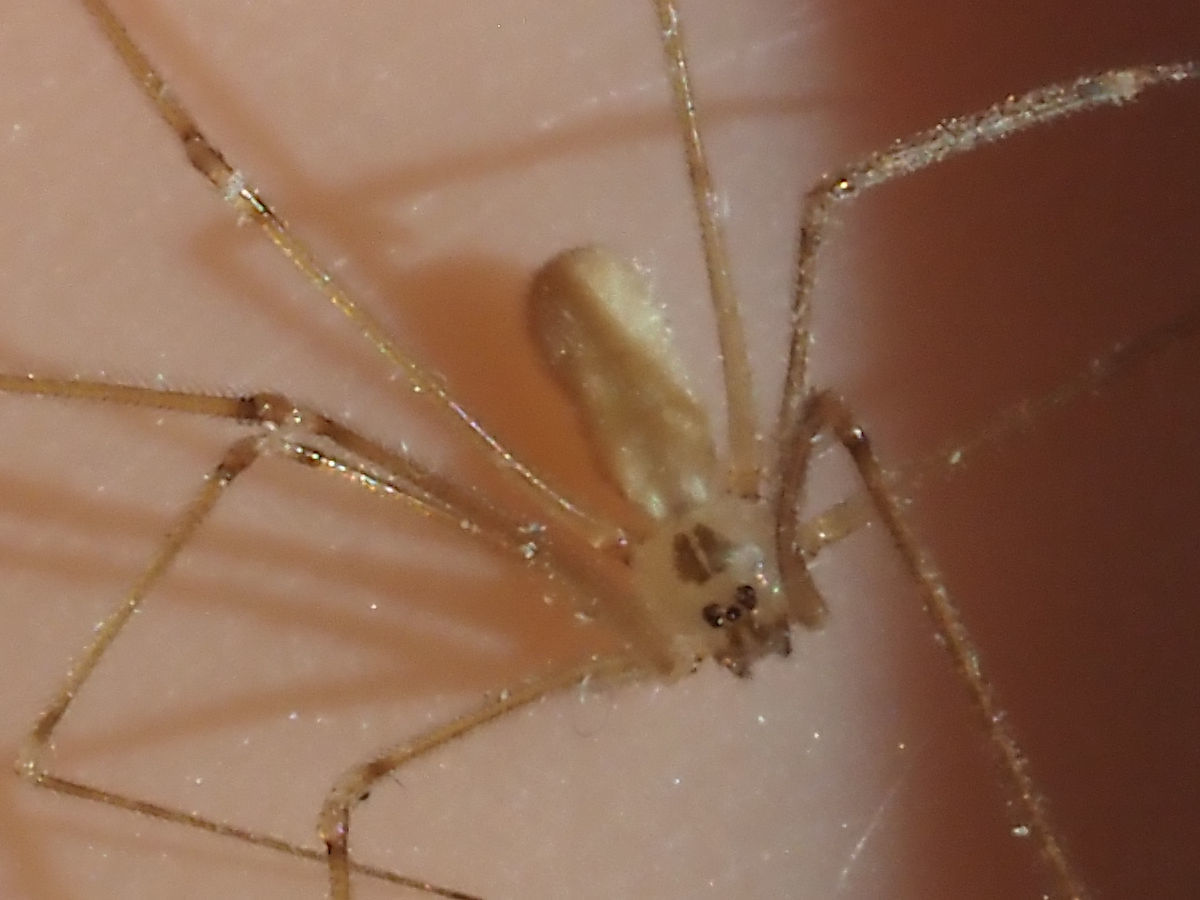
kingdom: Animalia
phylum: Arthropoda
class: Arachnida
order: Araneae
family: Pholcidae
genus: Pholcus
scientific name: Pholcus manueli
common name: Cellar spider
